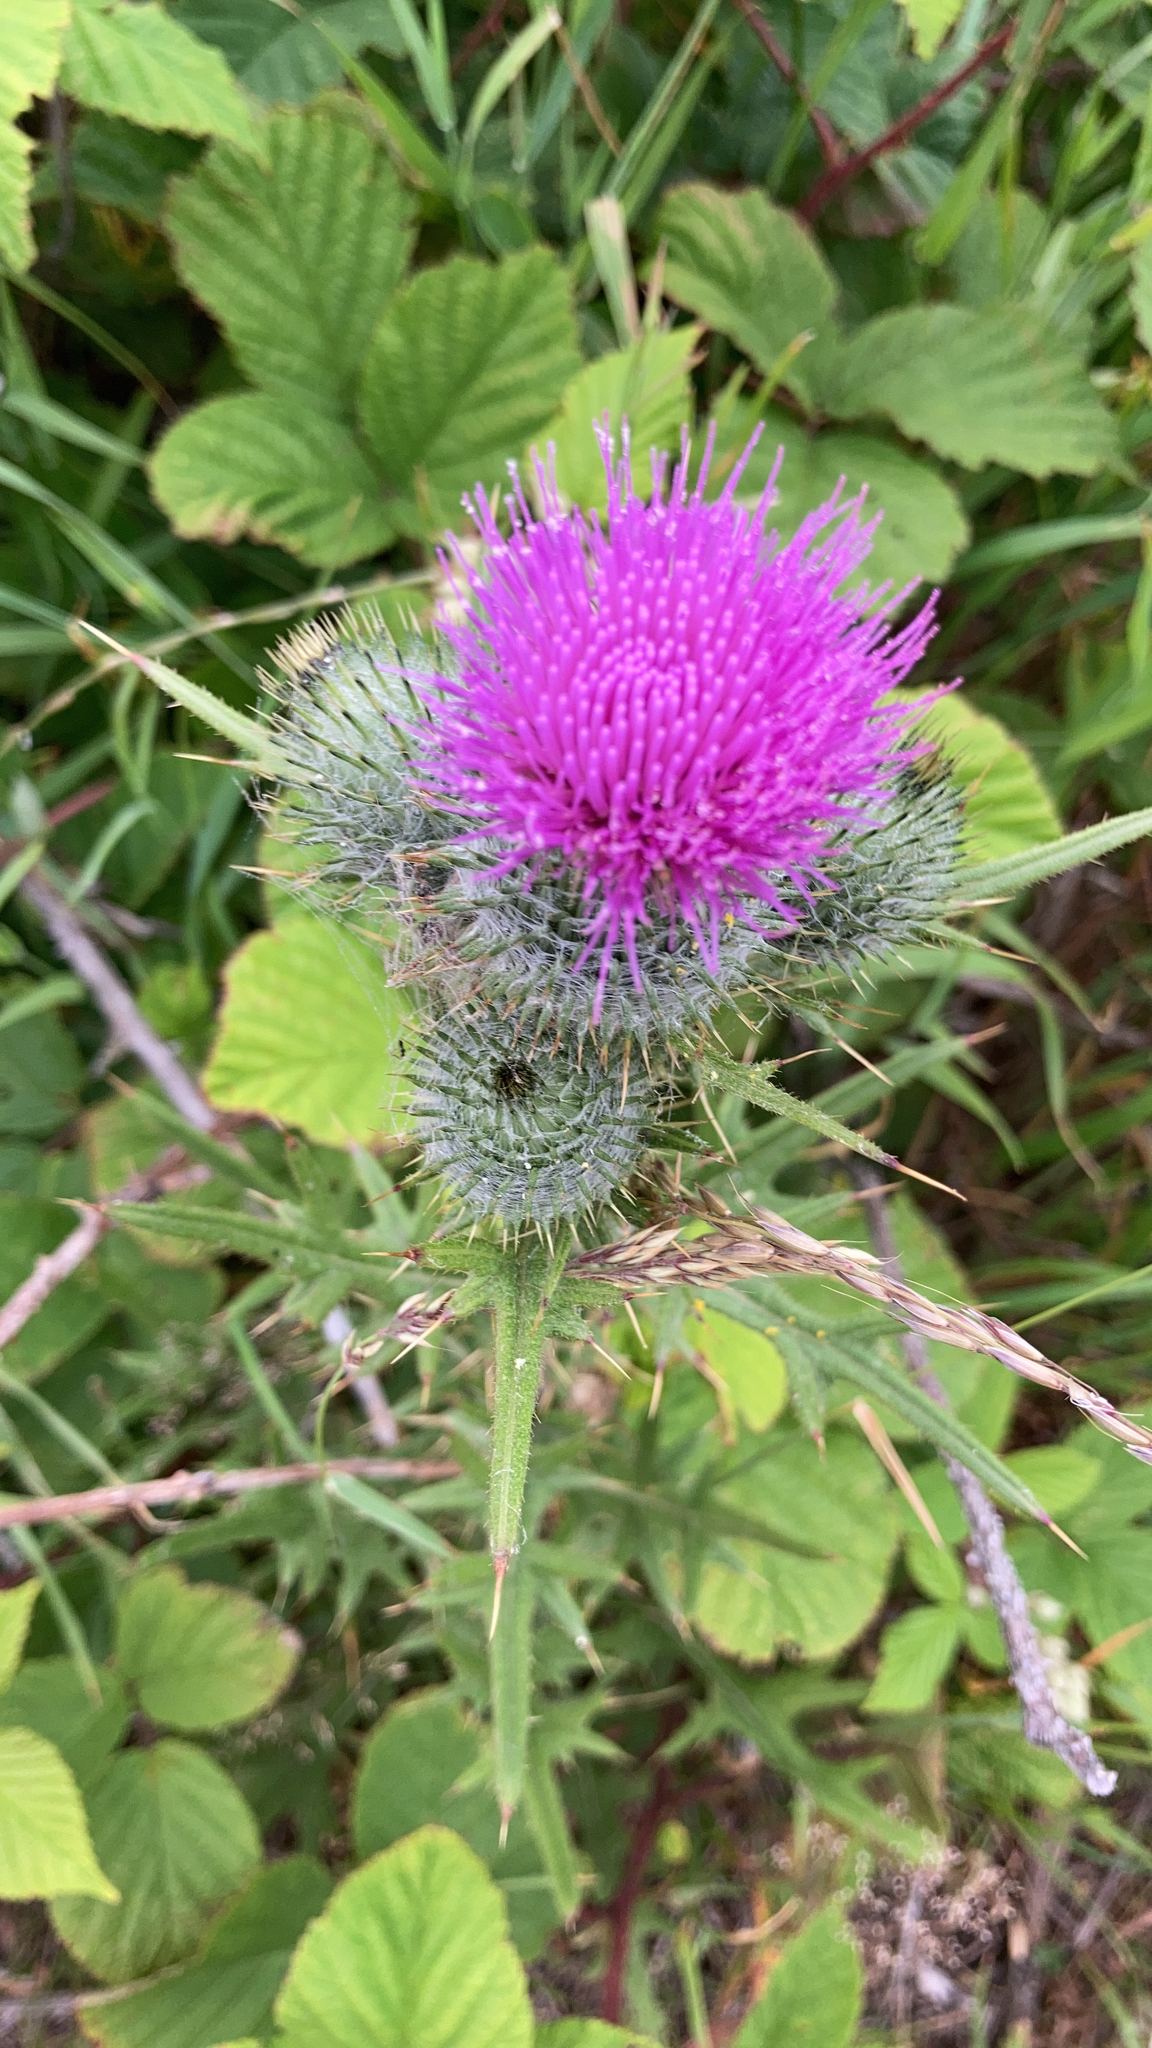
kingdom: Plantae
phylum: Tracheophyta
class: Magnoliopsida
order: Asterales
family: Asteraceae
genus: Cirsium
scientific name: Cirsium vulgare
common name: Bull thistle
